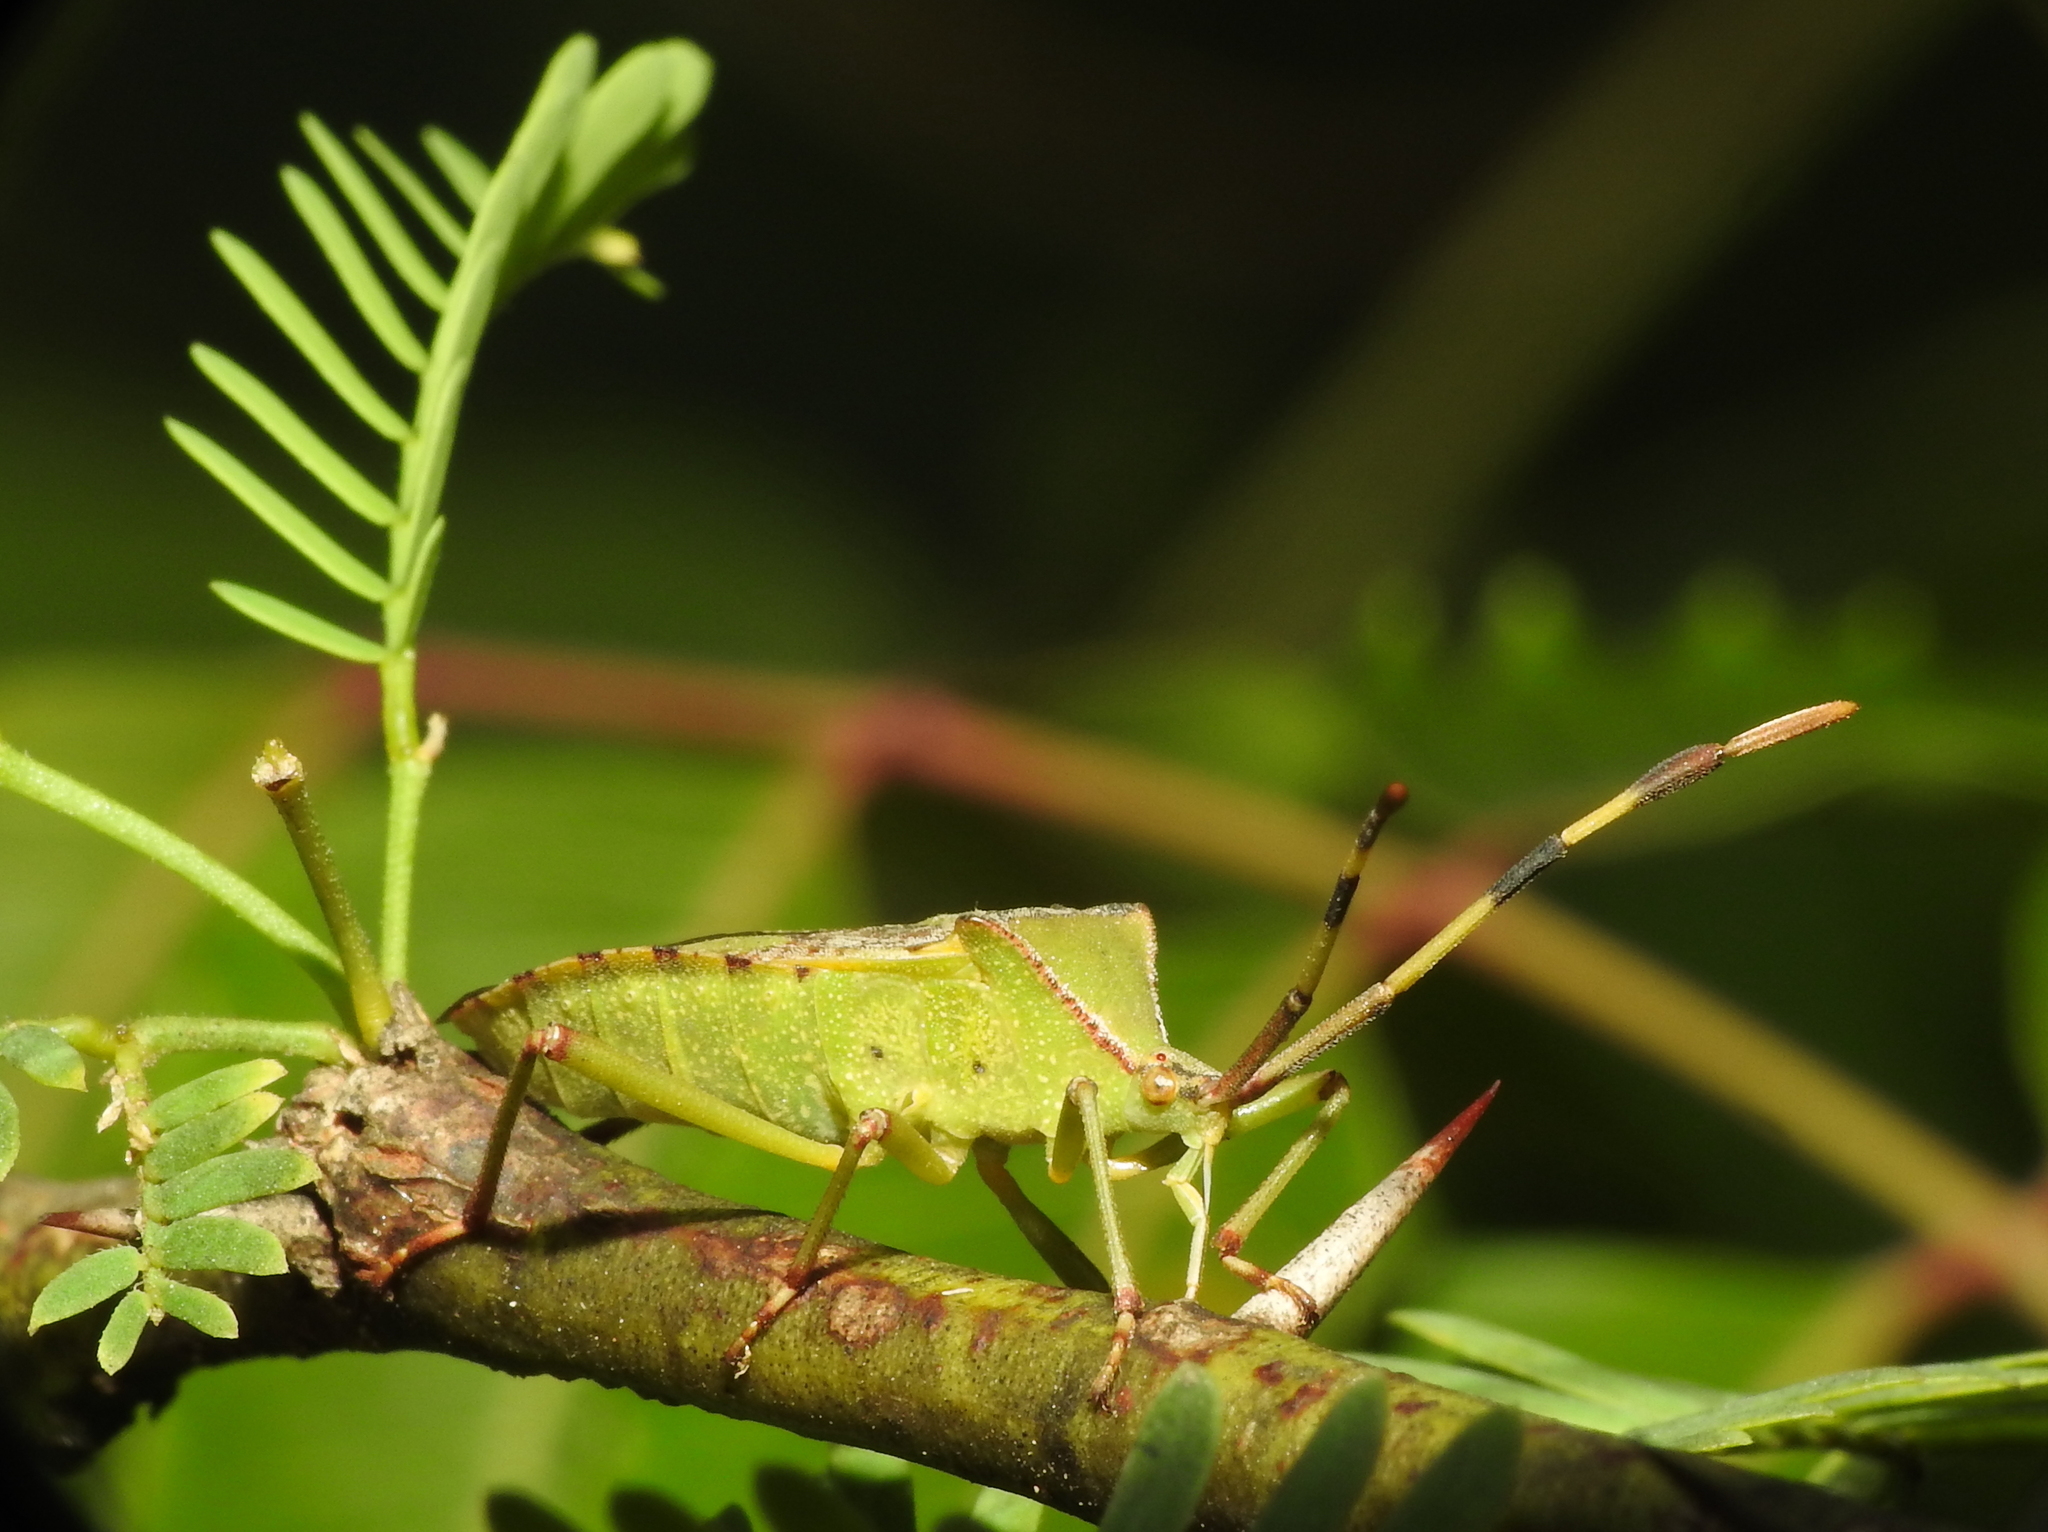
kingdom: Animalia
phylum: Arthropoda
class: Insecta
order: Hemiptera
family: Coreidae
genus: Prismatocerus
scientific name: Prismatocerus prominulus
